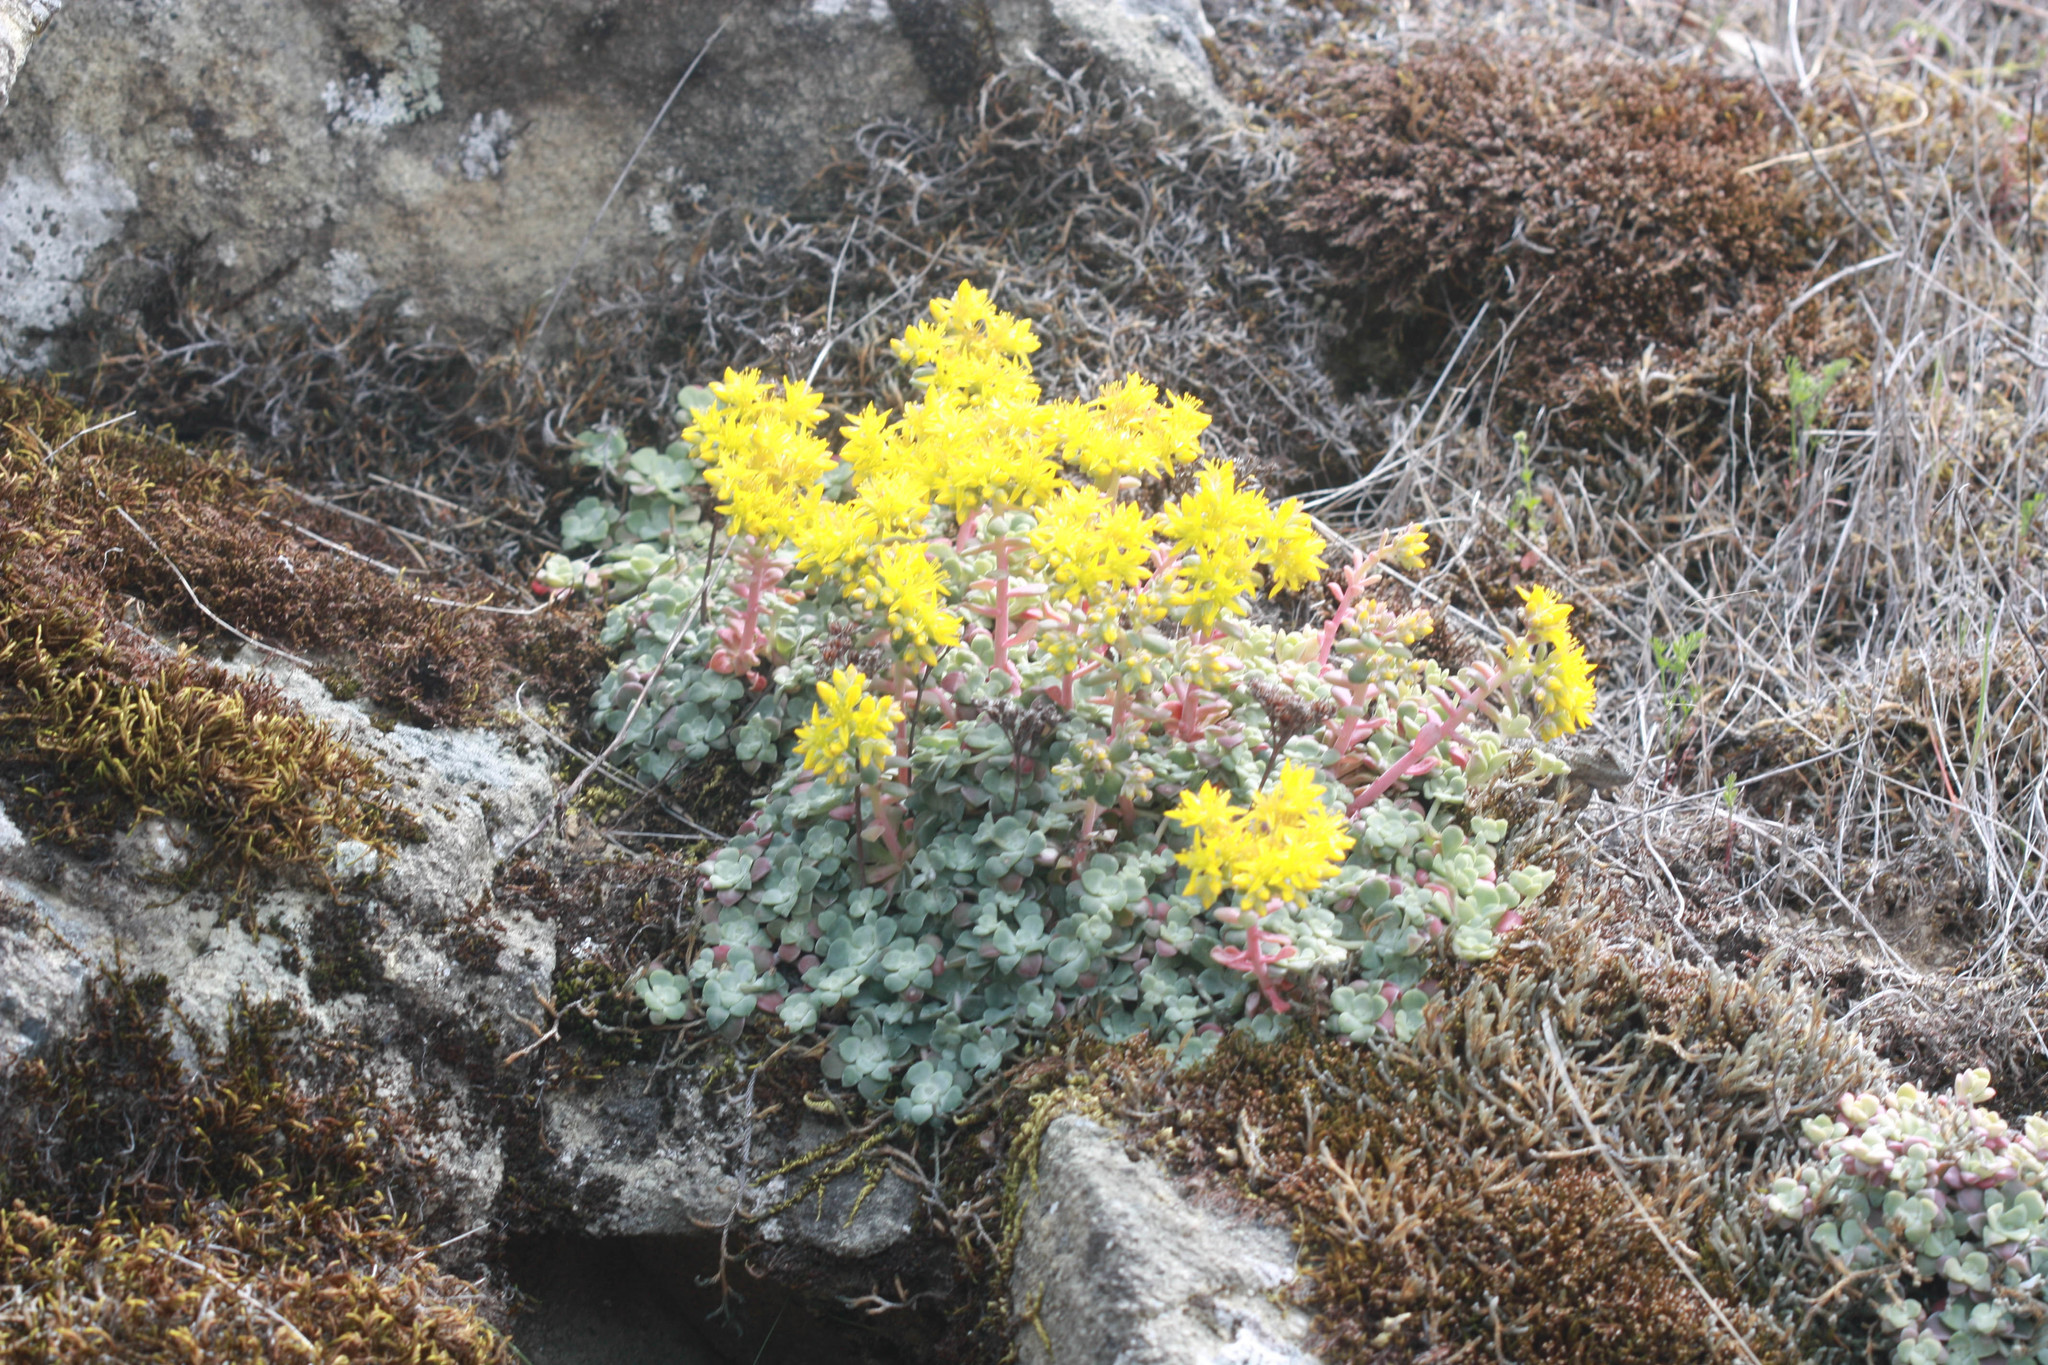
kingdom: Plantae
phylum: Tracheophyta
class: Magnoliopsida
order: Saxifragales
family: Crassulaceae
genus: Sedum
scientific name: Sedum spathulifolium
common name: Colorado stonecrop
